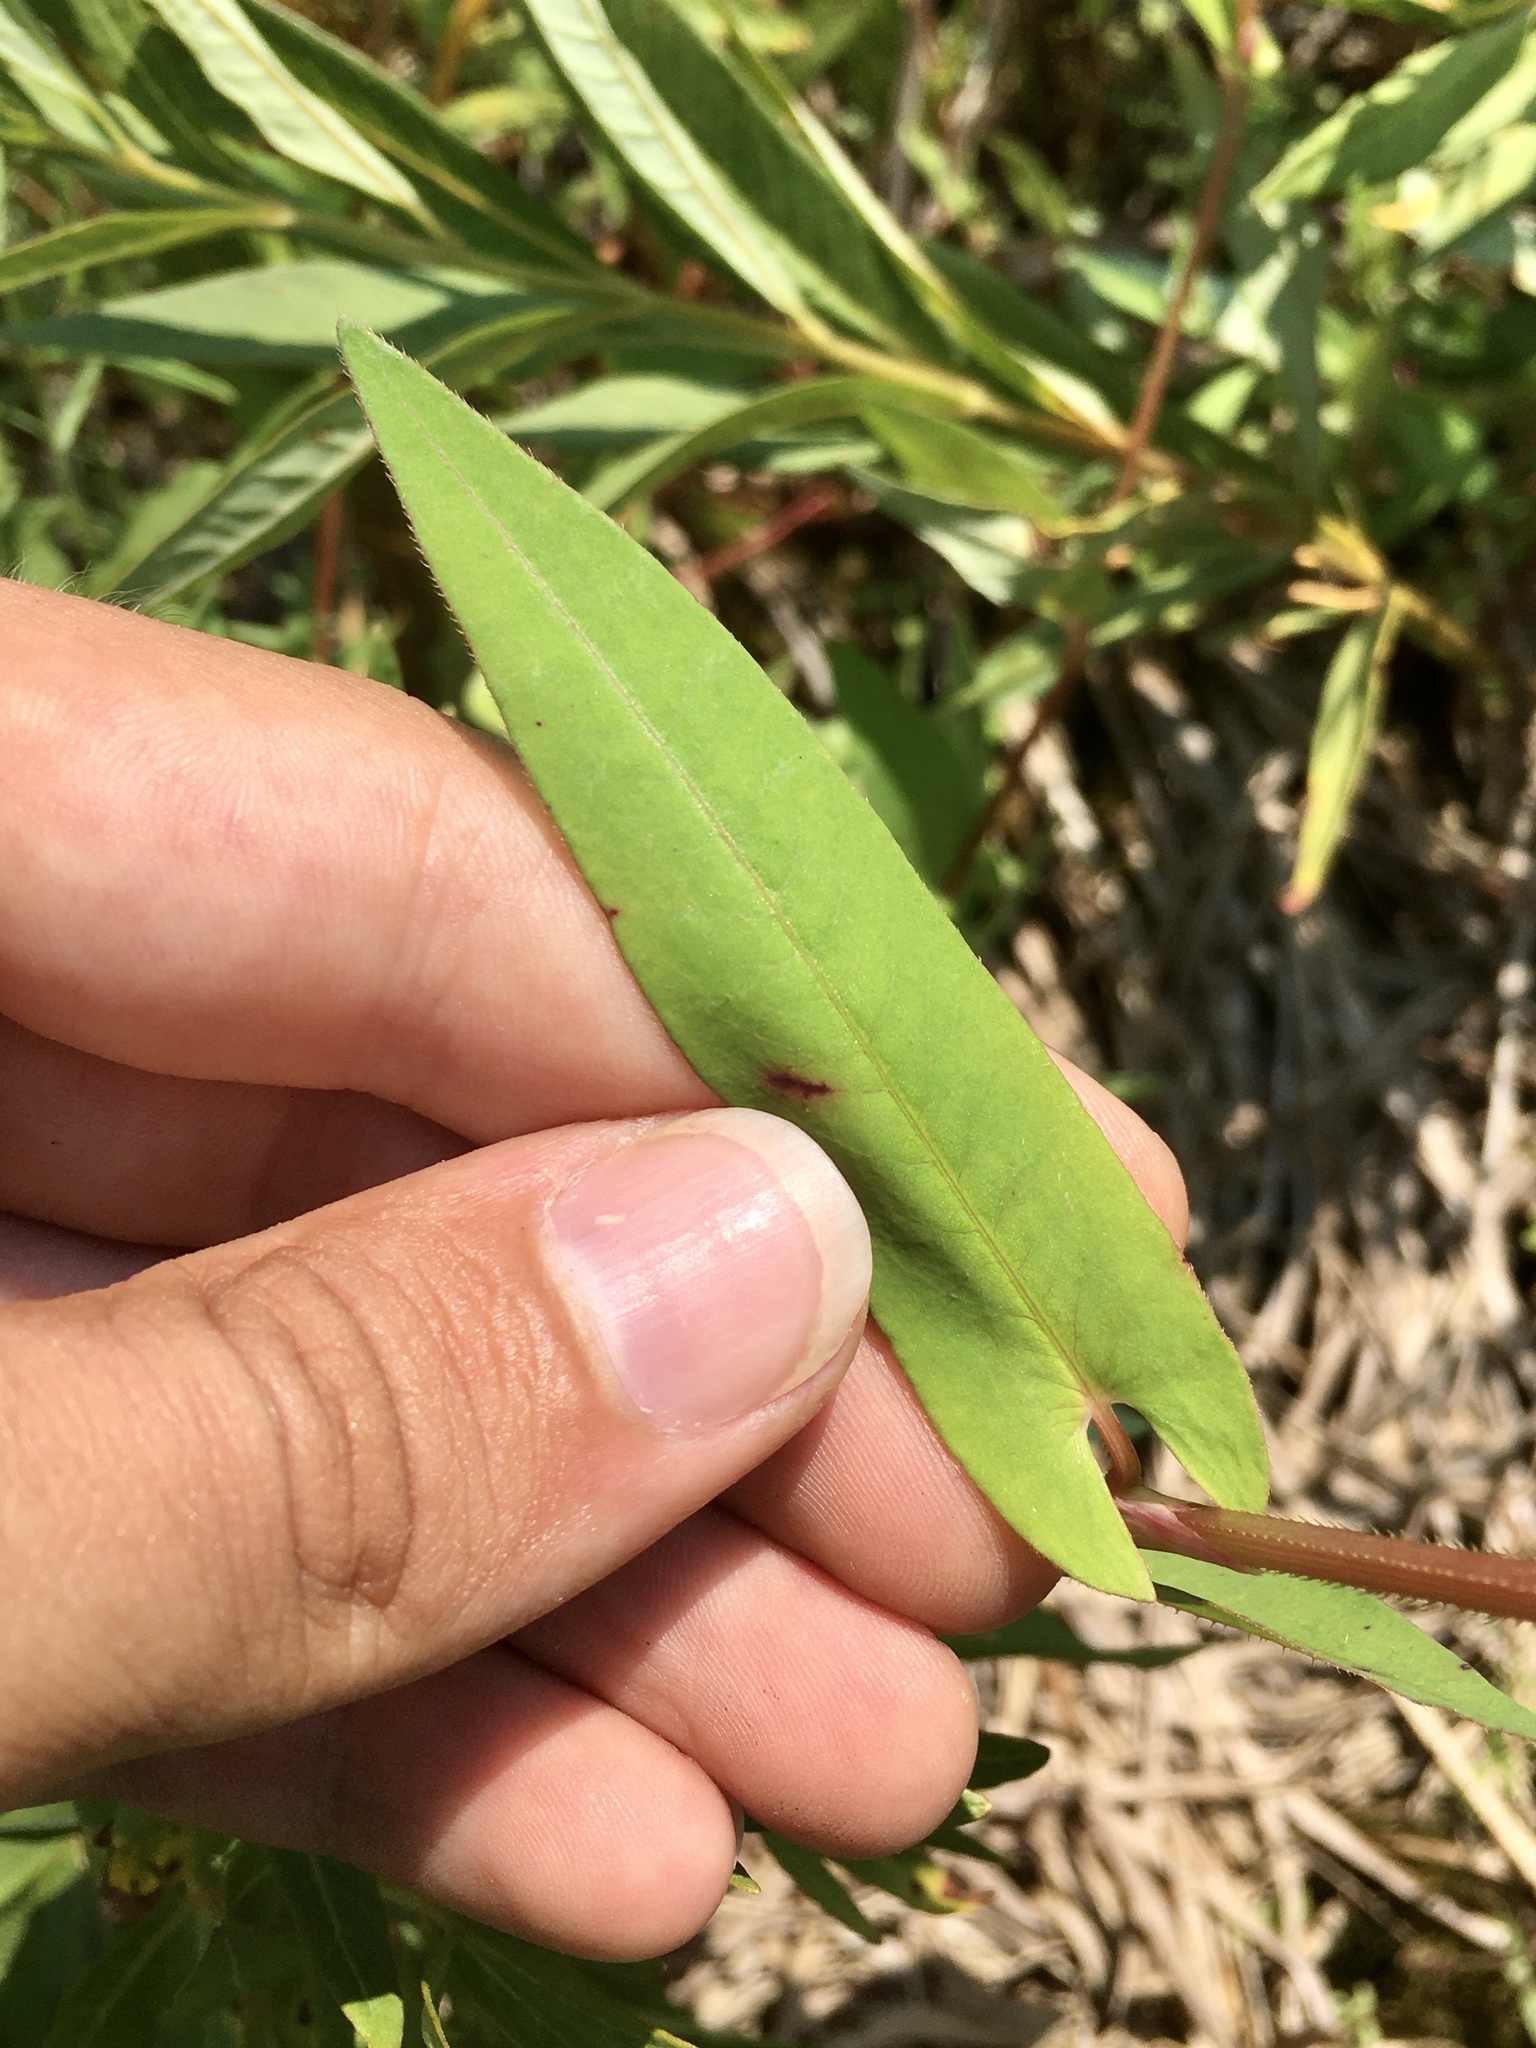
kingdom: Plantae
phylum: Tracheophyta
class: Magnoliopsida
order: Caryophyllales
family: Polygonaceae
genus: Persicaria
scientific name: Persicaria sagittata
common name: American tearthumb
